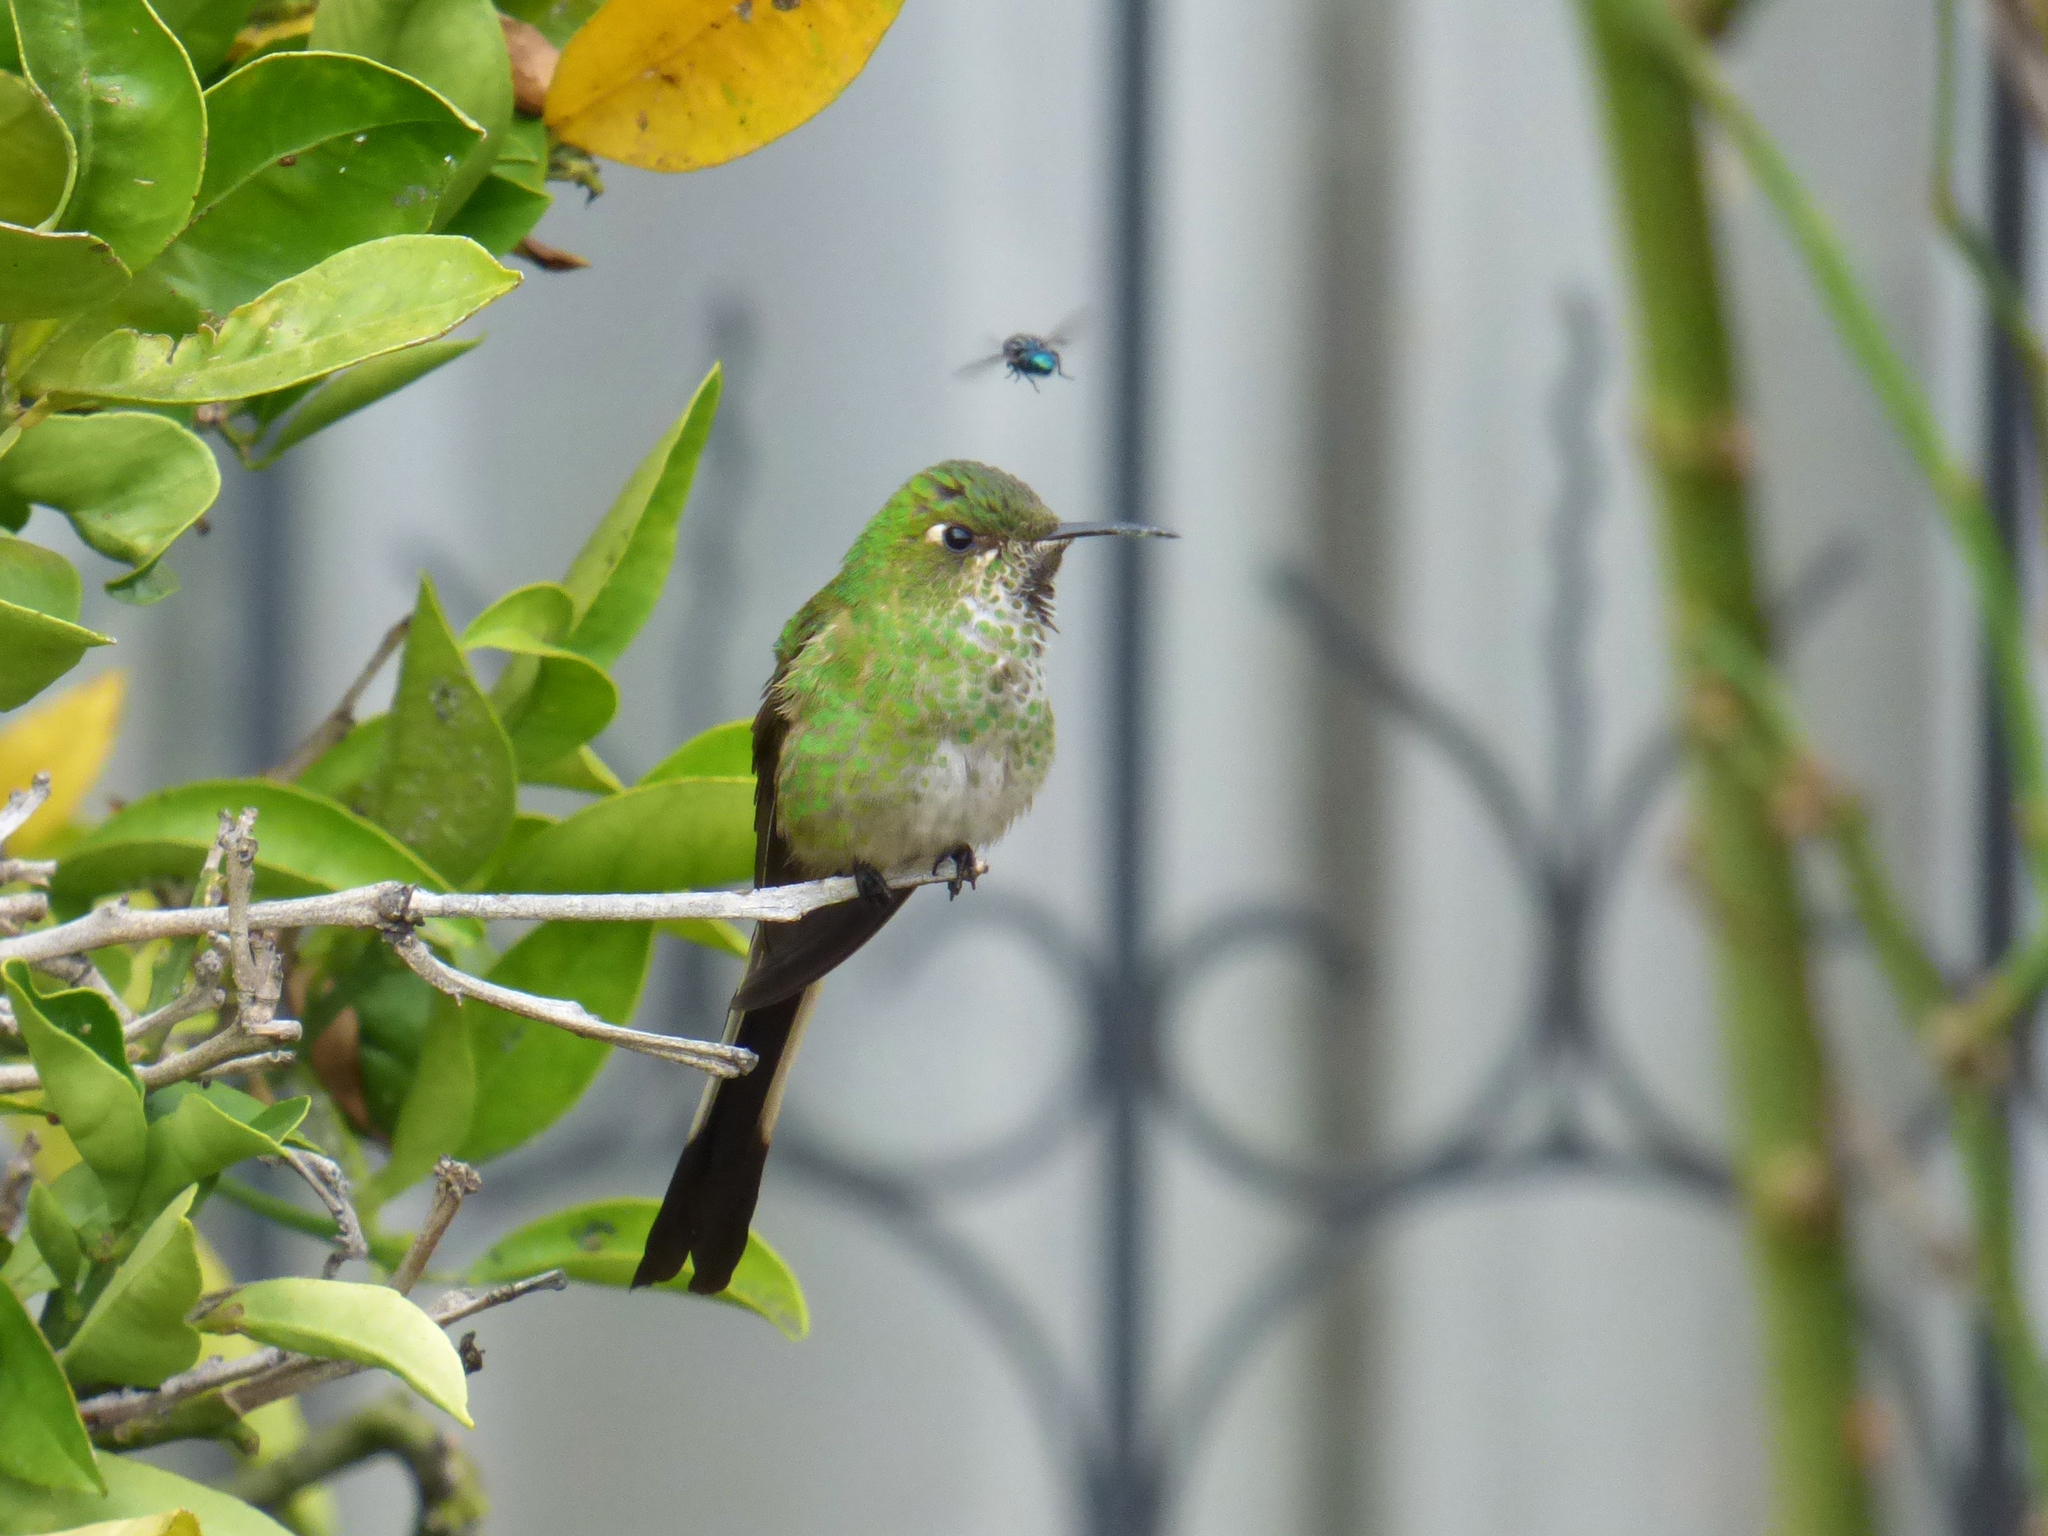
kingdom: Animalia
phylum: Chordata
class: Aves
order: Apodiformes
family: Trochilidae
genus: Lesbia
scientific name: Lesbia victoriae
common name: Black-tailed trainbearer
